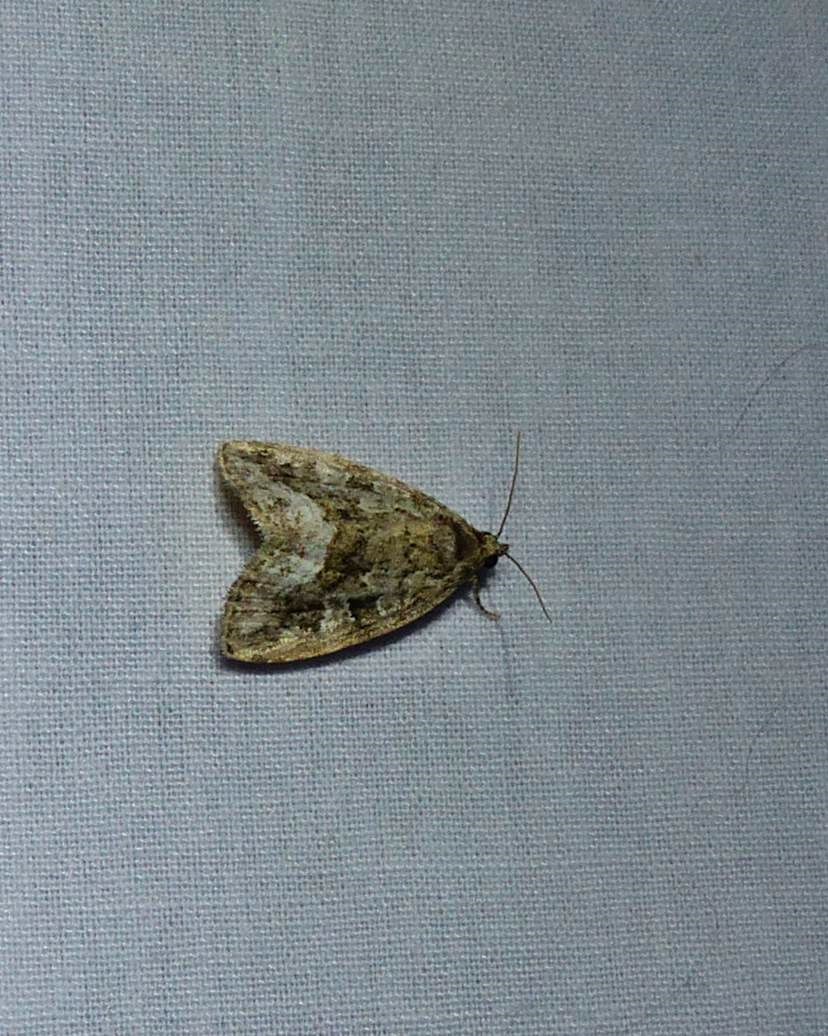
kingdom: Animalia
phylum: Arthropoda
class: Insecta
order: Lepidoptera
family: Noctuidae
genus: Protodeltote
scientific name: Protodeltote muscosula
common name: Large mossy glyph
